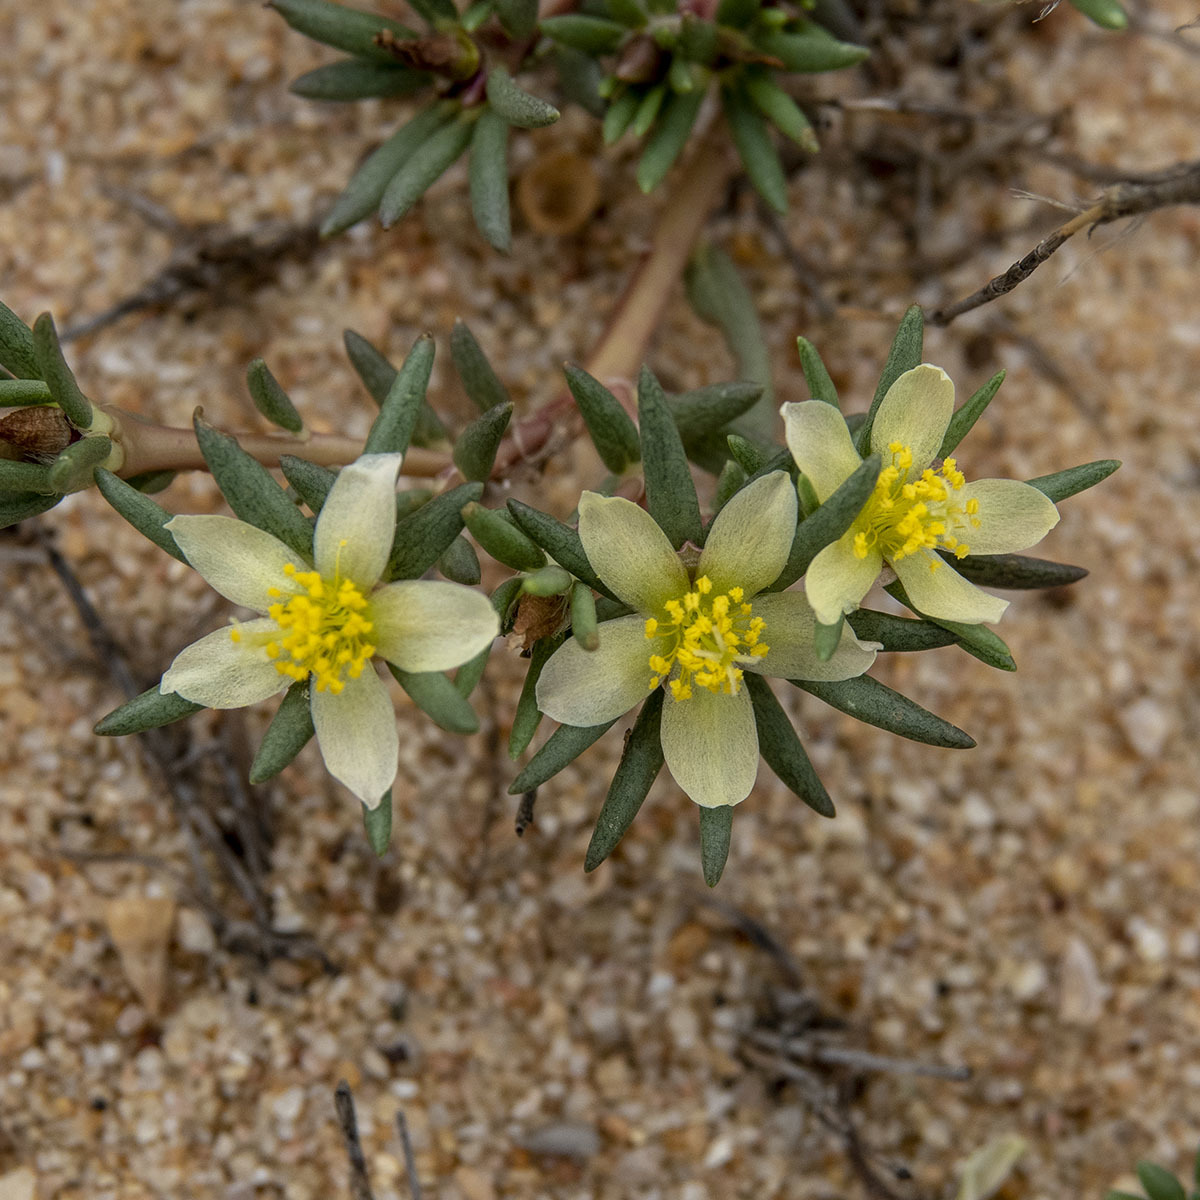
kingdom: Plantae
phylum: Tracheophyta
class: Magnoliopsida
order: Caryophyllales
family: Portulacaceae
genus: Portulaca
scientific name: Portulaca tuberosa
